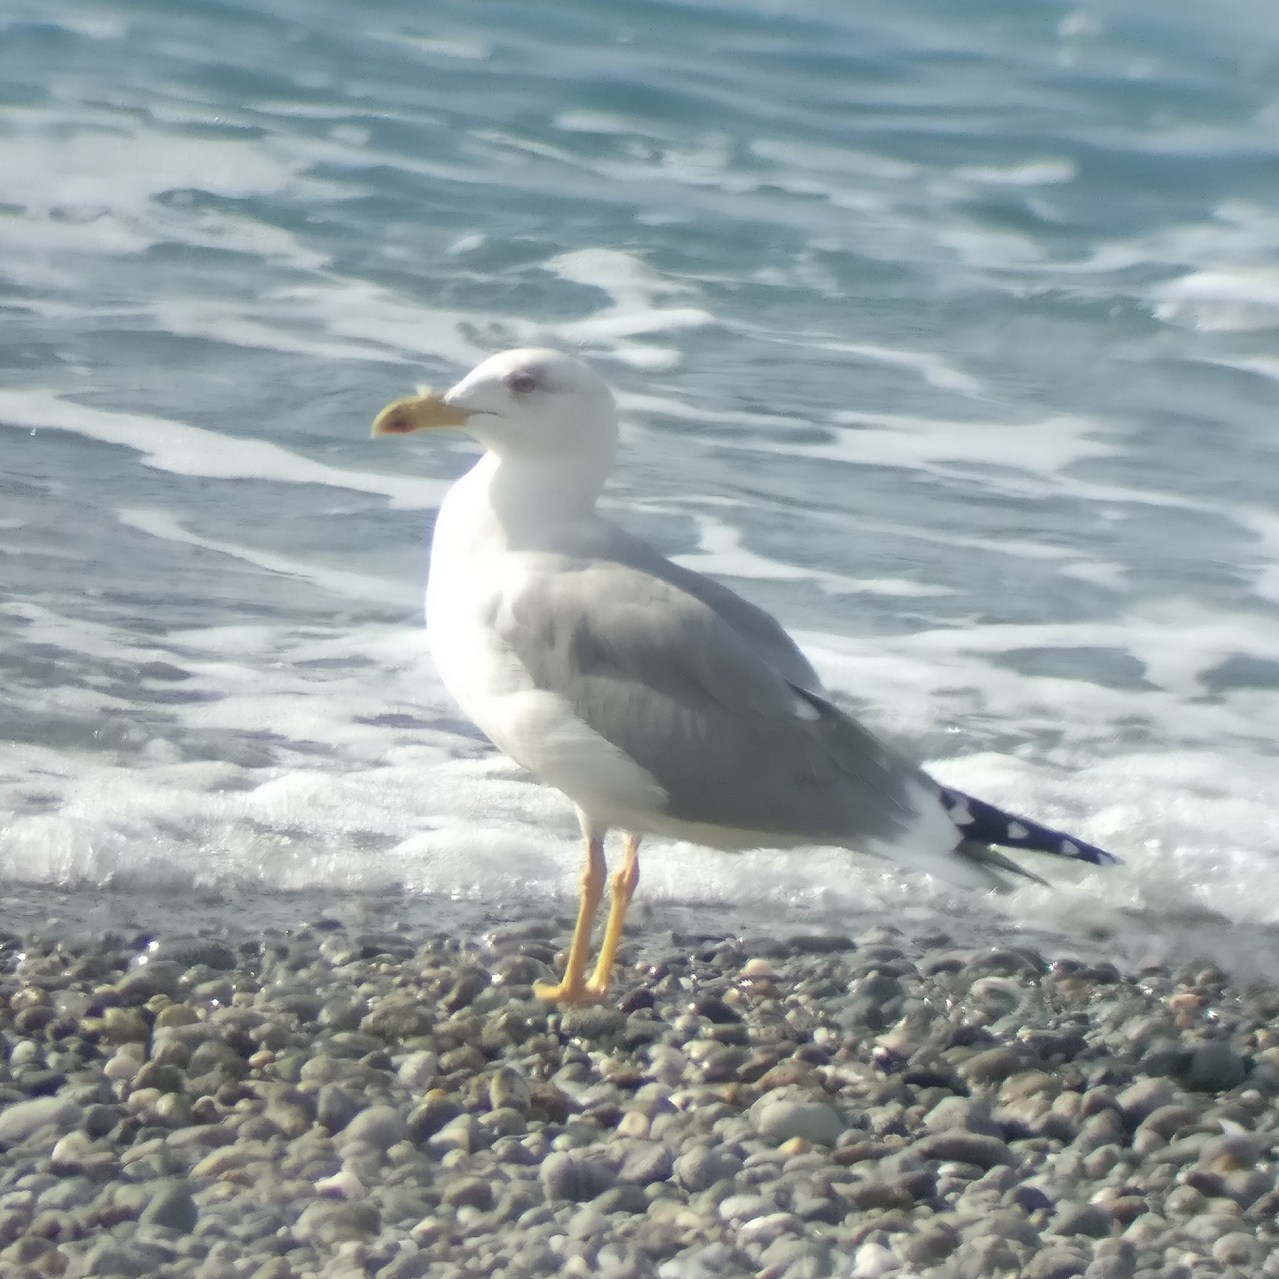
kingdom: Animalia
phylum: Chordata
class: Aves
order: Charadriiformes
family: Laridae
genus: Larus
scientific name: Larus michahellis
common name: Yellow-legged gull
